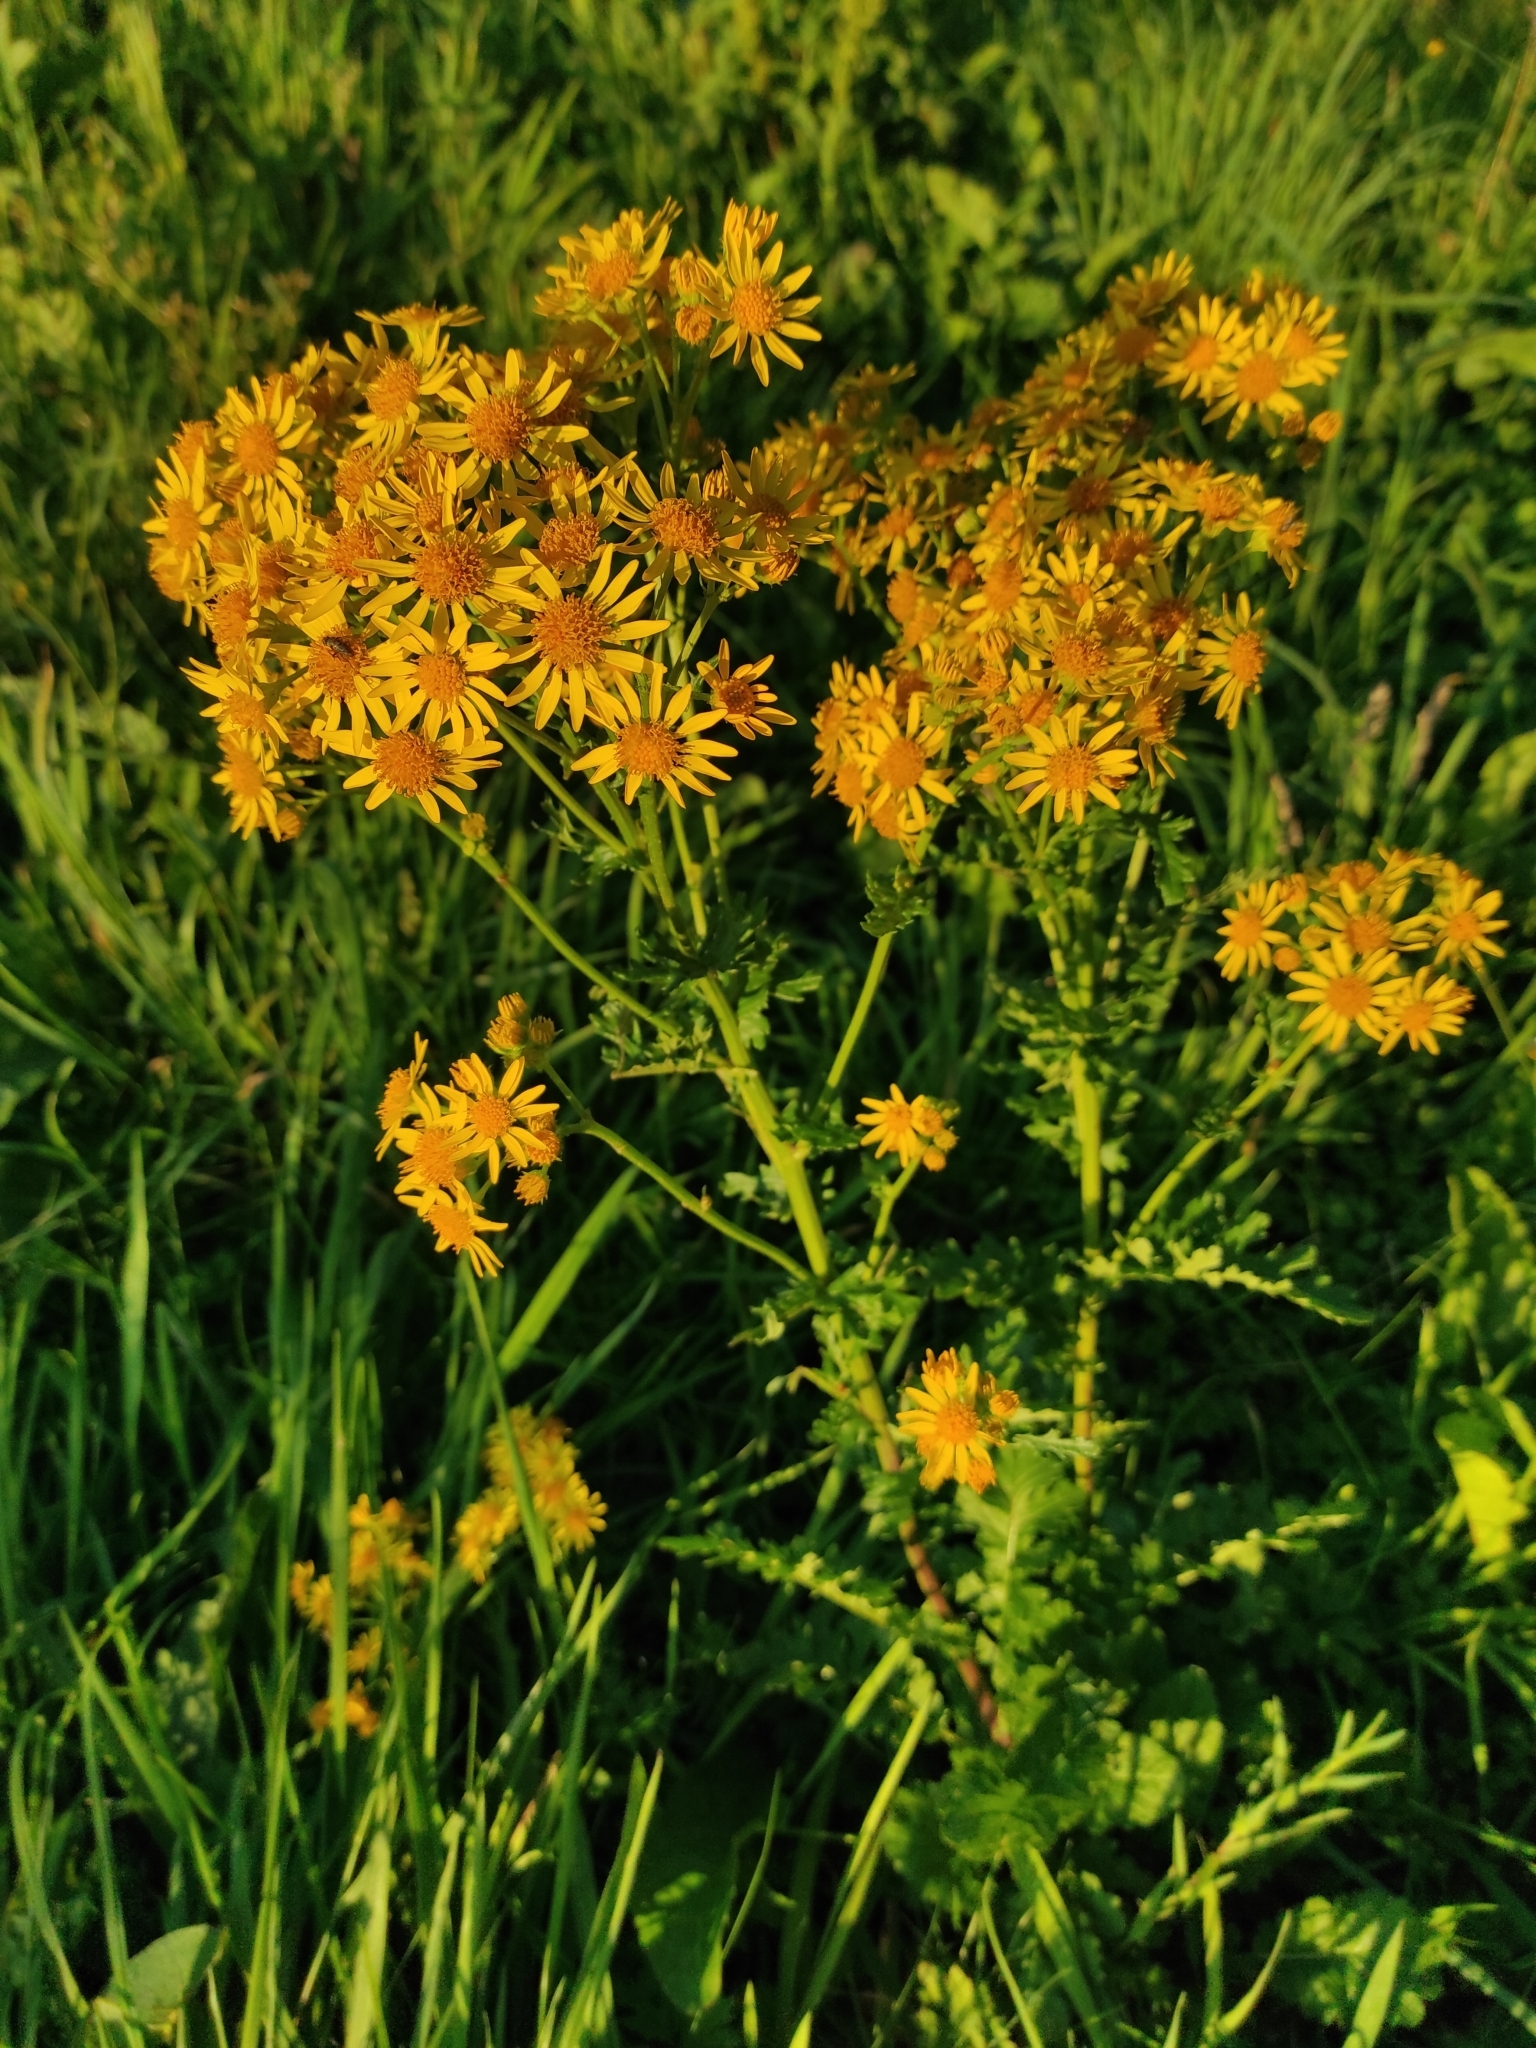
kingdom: Plantae
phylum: Tracheophyta
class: Magnoliopsida
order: Asterales
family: Asteraceae
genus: Jacobaea
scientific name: Jacobaea vulgaris
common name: Stinking willie
